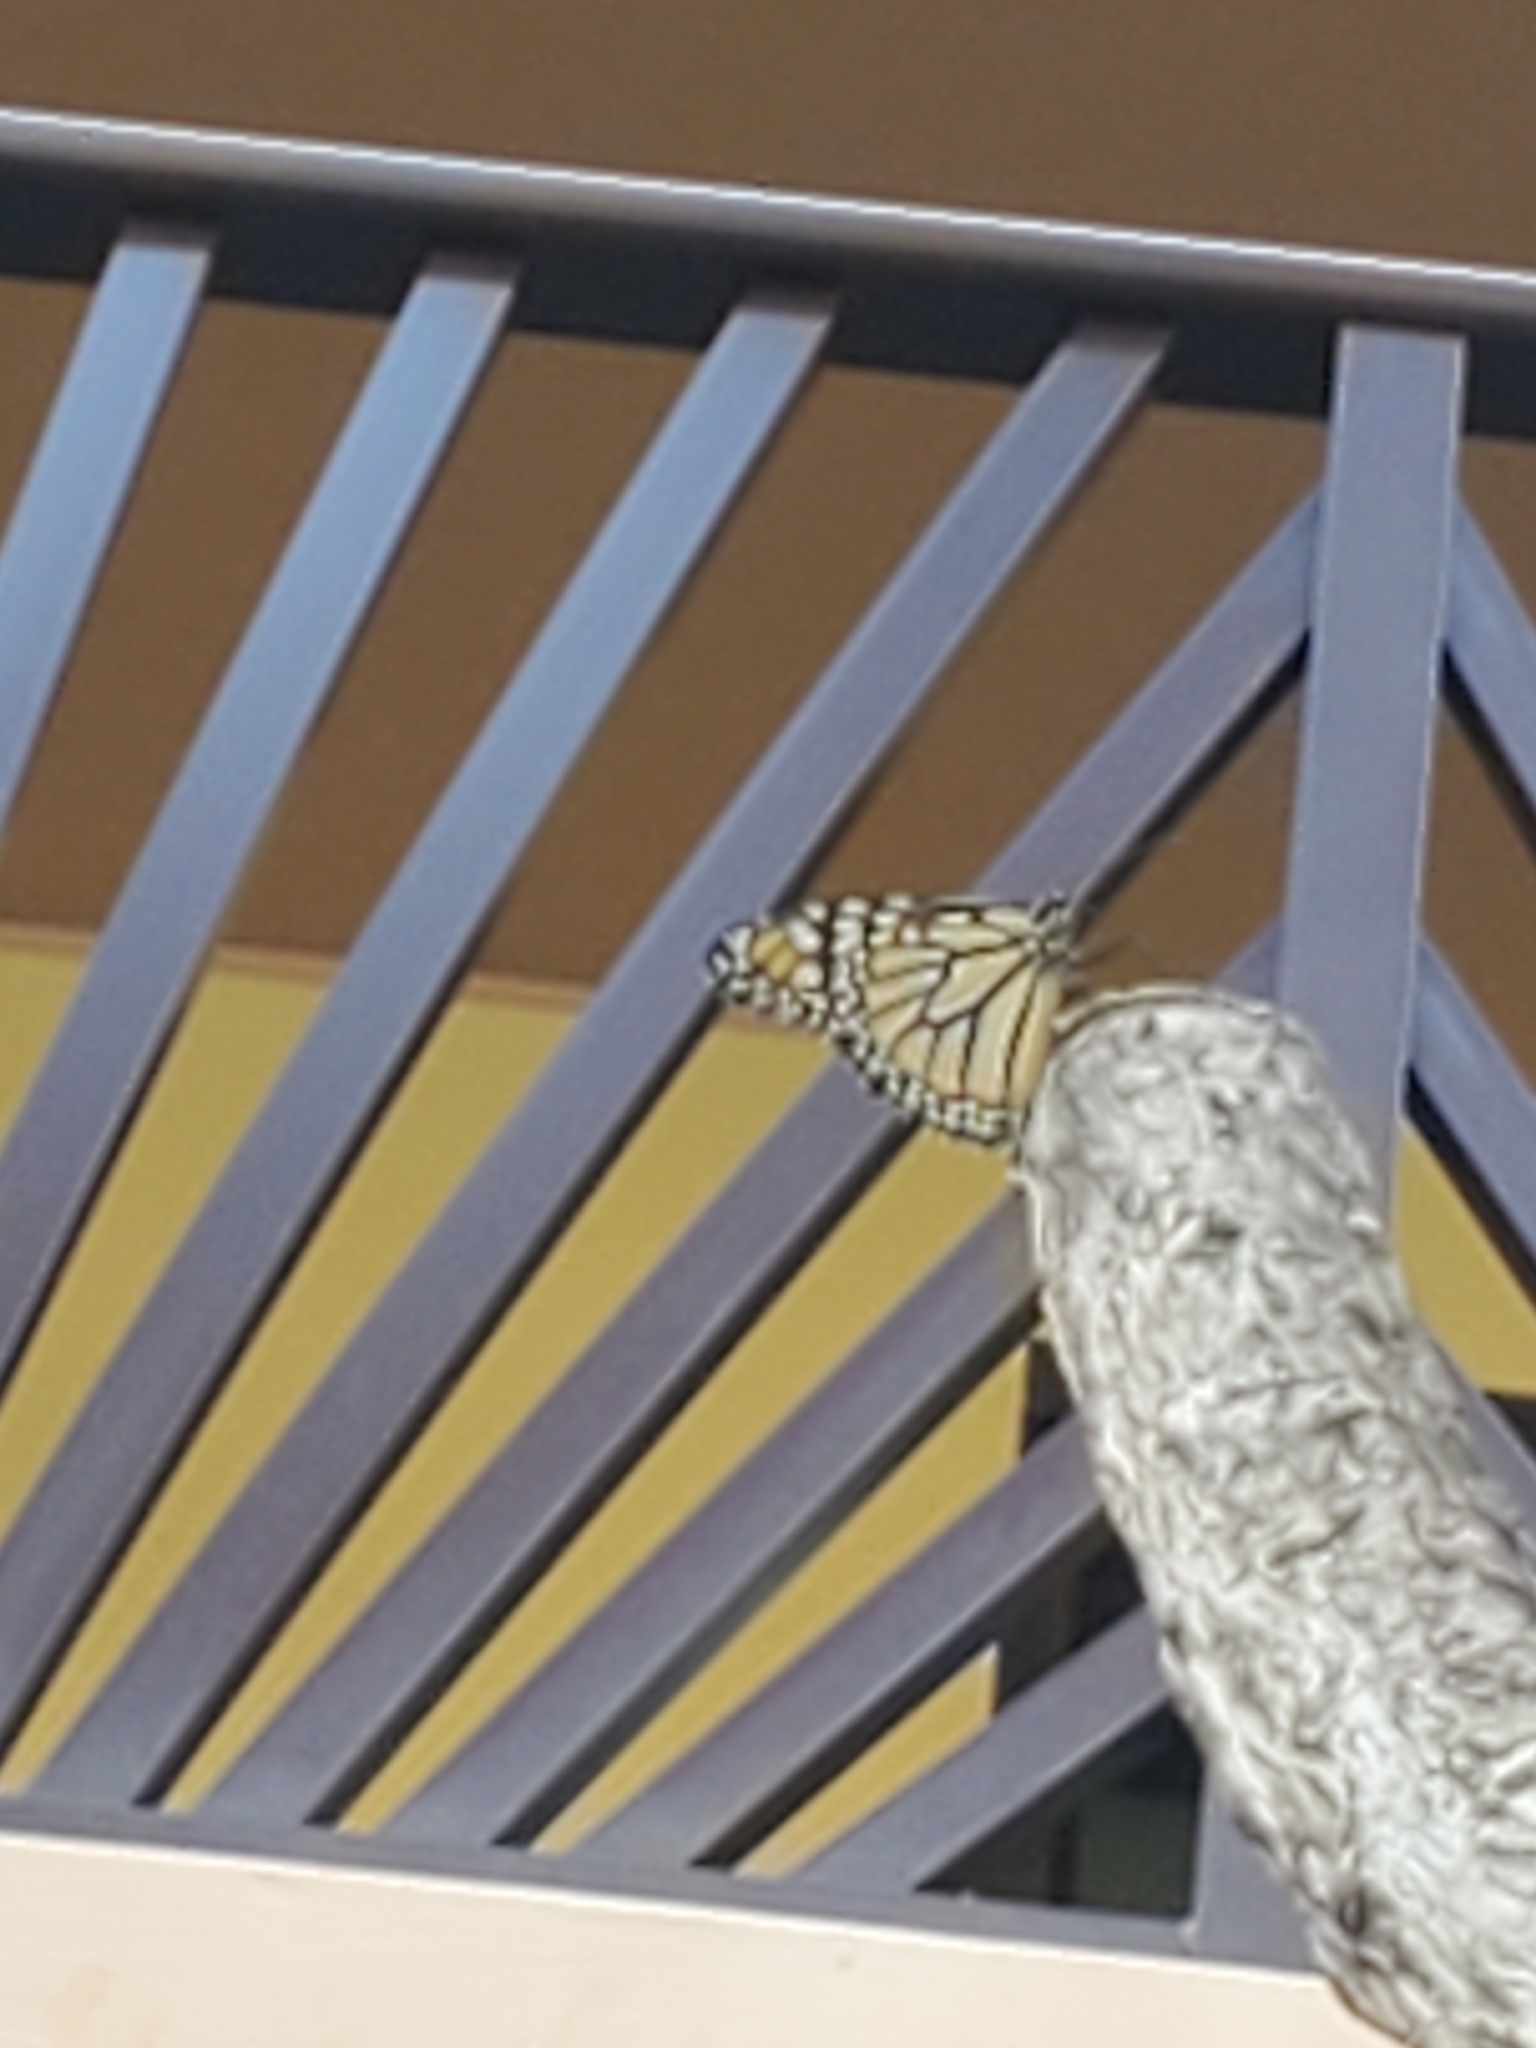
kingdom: Animalia
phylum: Arthropoda
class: Insecta
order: Lepidoptera
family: Nymphalidae
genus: Danaus
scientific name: Danaus plexippus
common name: Monarch
